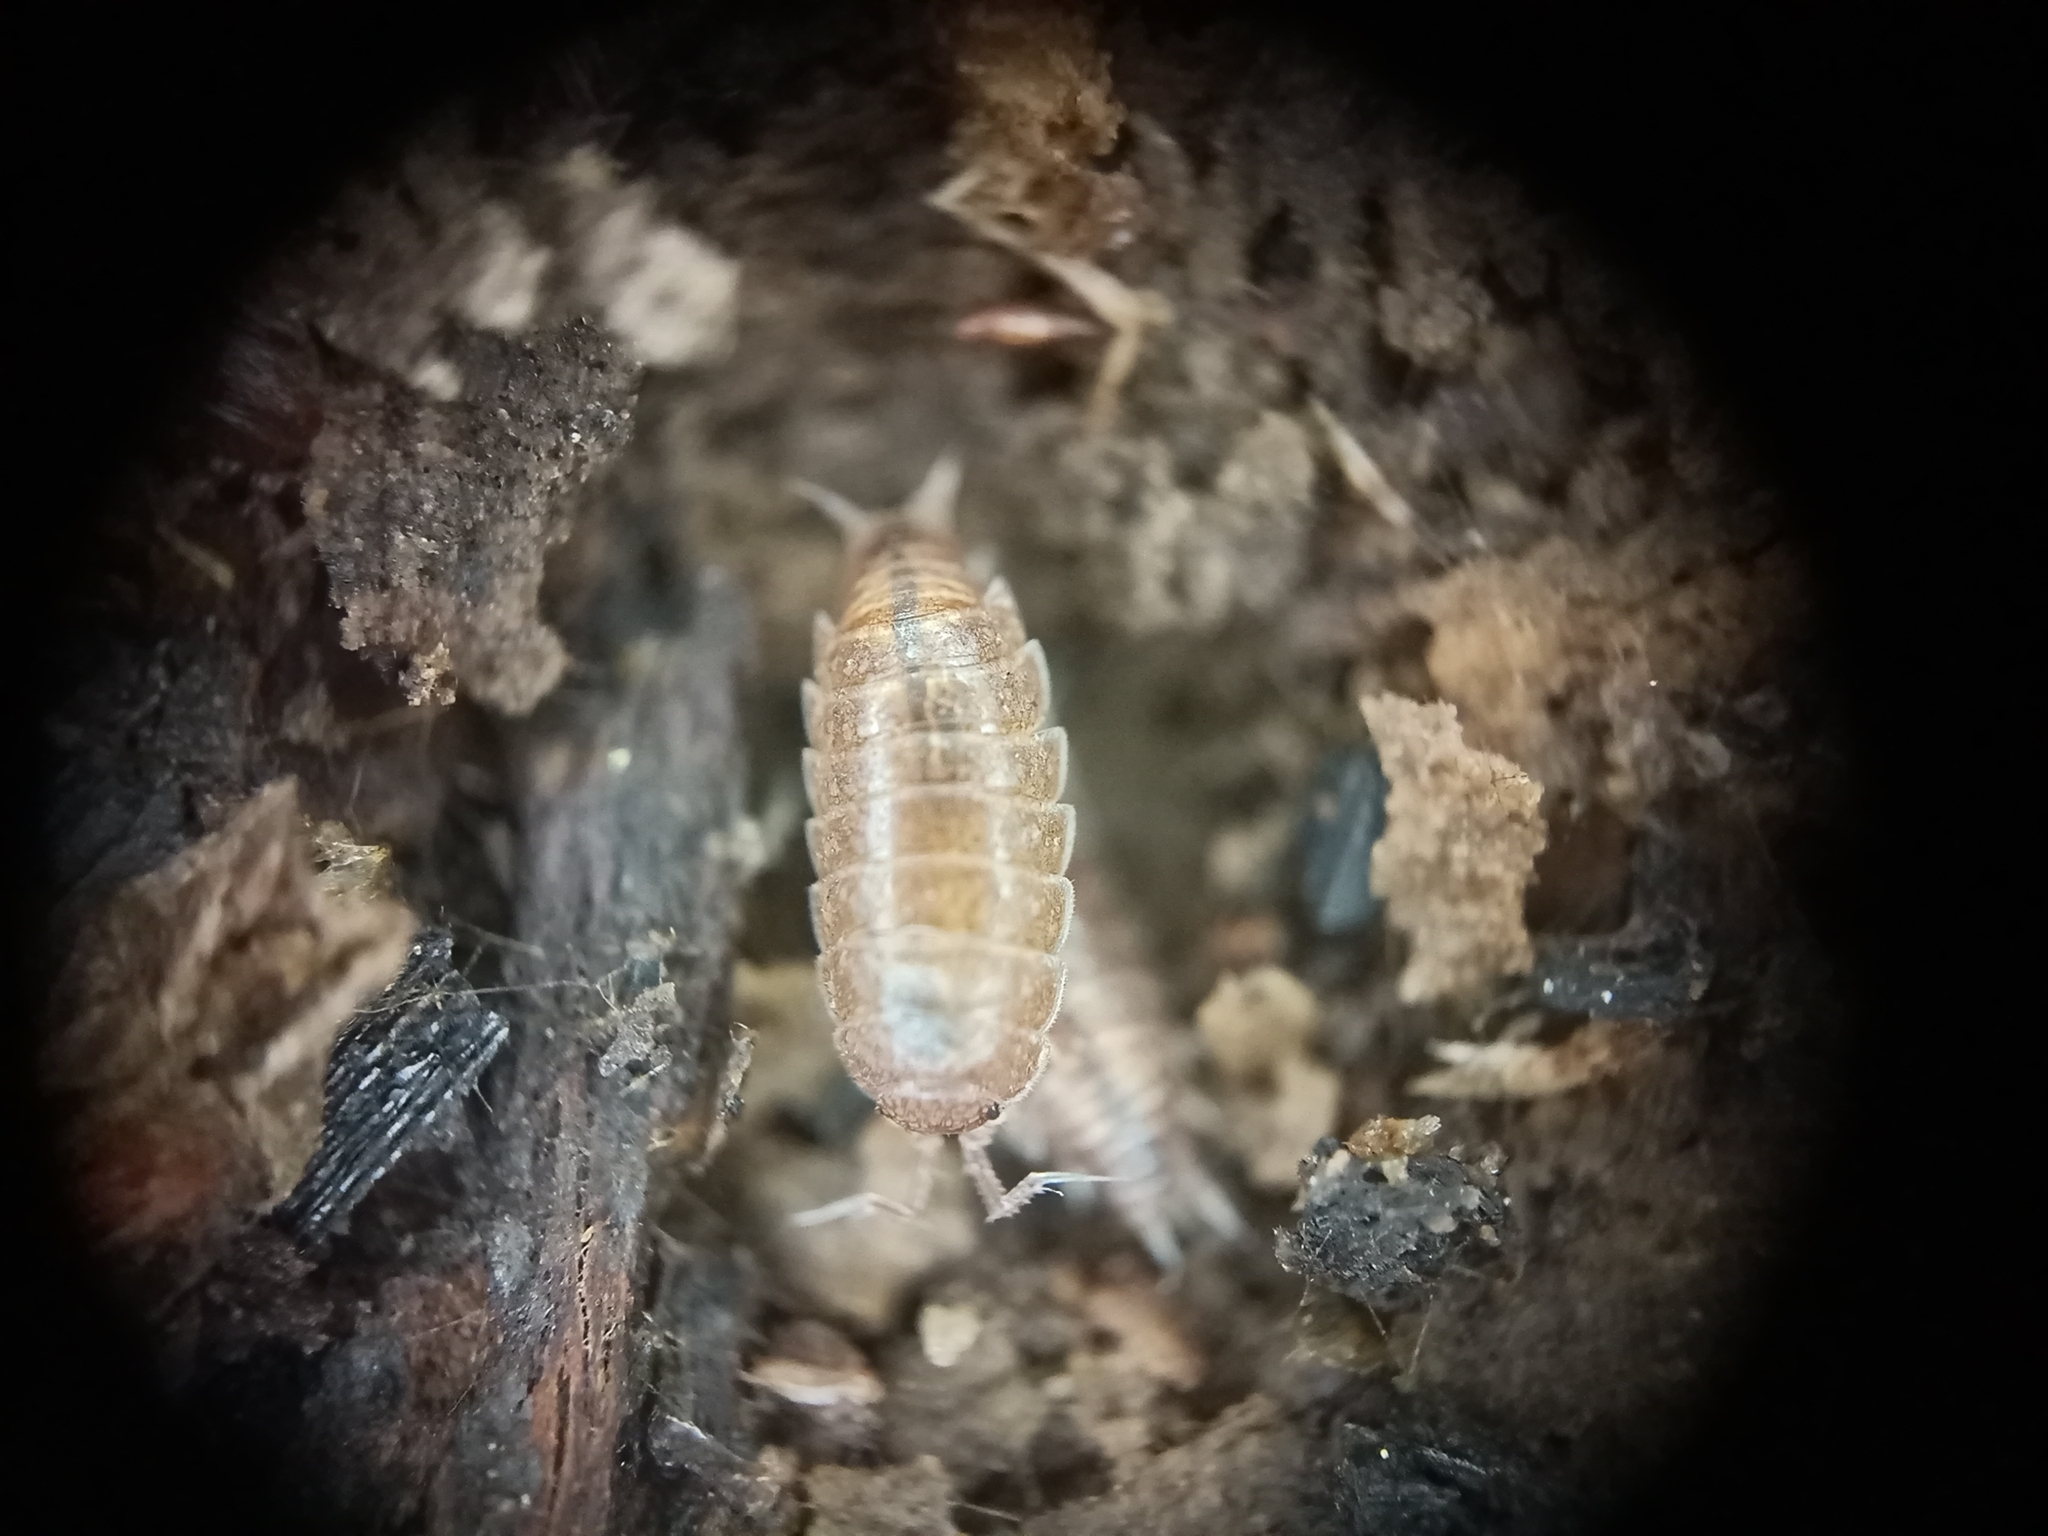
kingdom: Animalia
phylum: Arthropoda
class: Malacostraca
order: Isopoda
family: Trichoniscidae
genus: Hyloniscus
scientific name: Hyloniscus riparius
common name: Isopod
